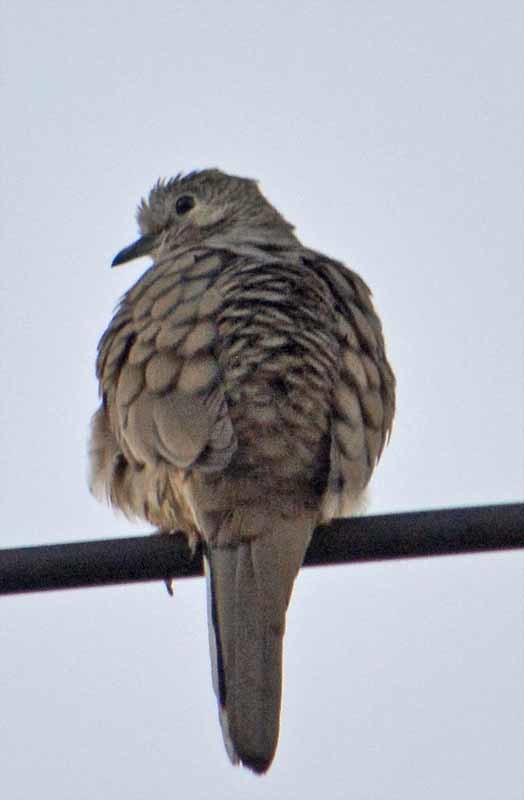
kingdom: Animalia
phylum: Chordata
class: Aves
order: Columbiformes
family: Columbidae
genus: Columbina
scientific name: Columbina inca
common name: Inca dove
